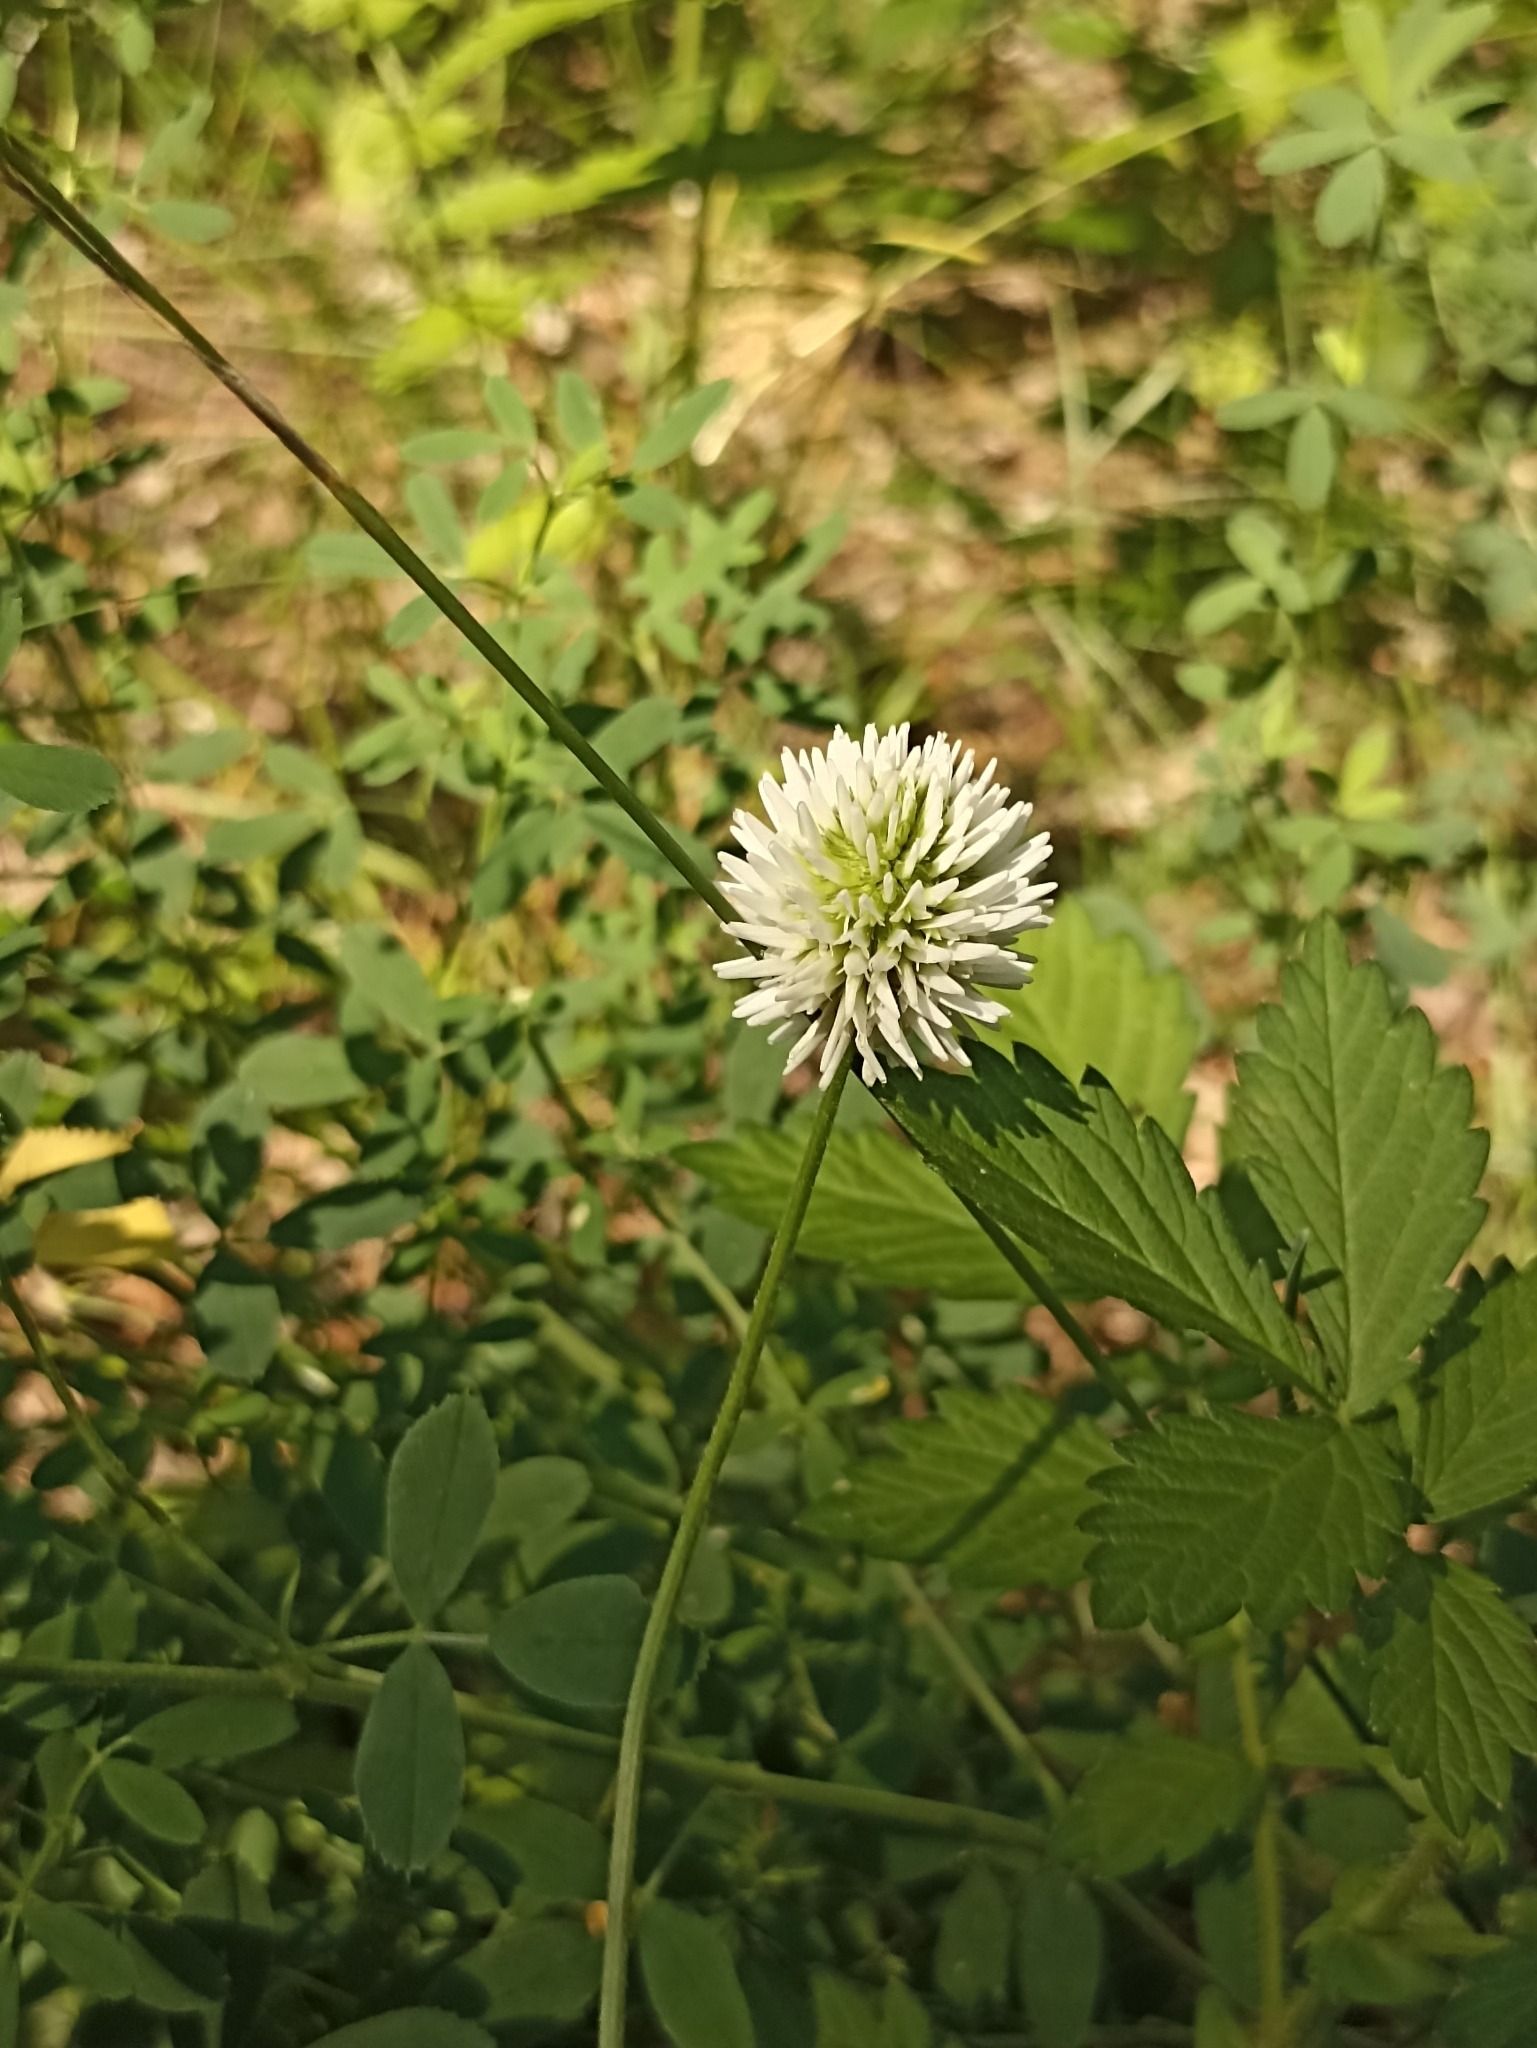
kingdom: Plantae
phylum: Tracheophyta
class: Magnoliopsida
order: Fabales
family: Fabaceae
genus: Trifolium
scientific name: Trifolium montanum
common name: Mountain clover
